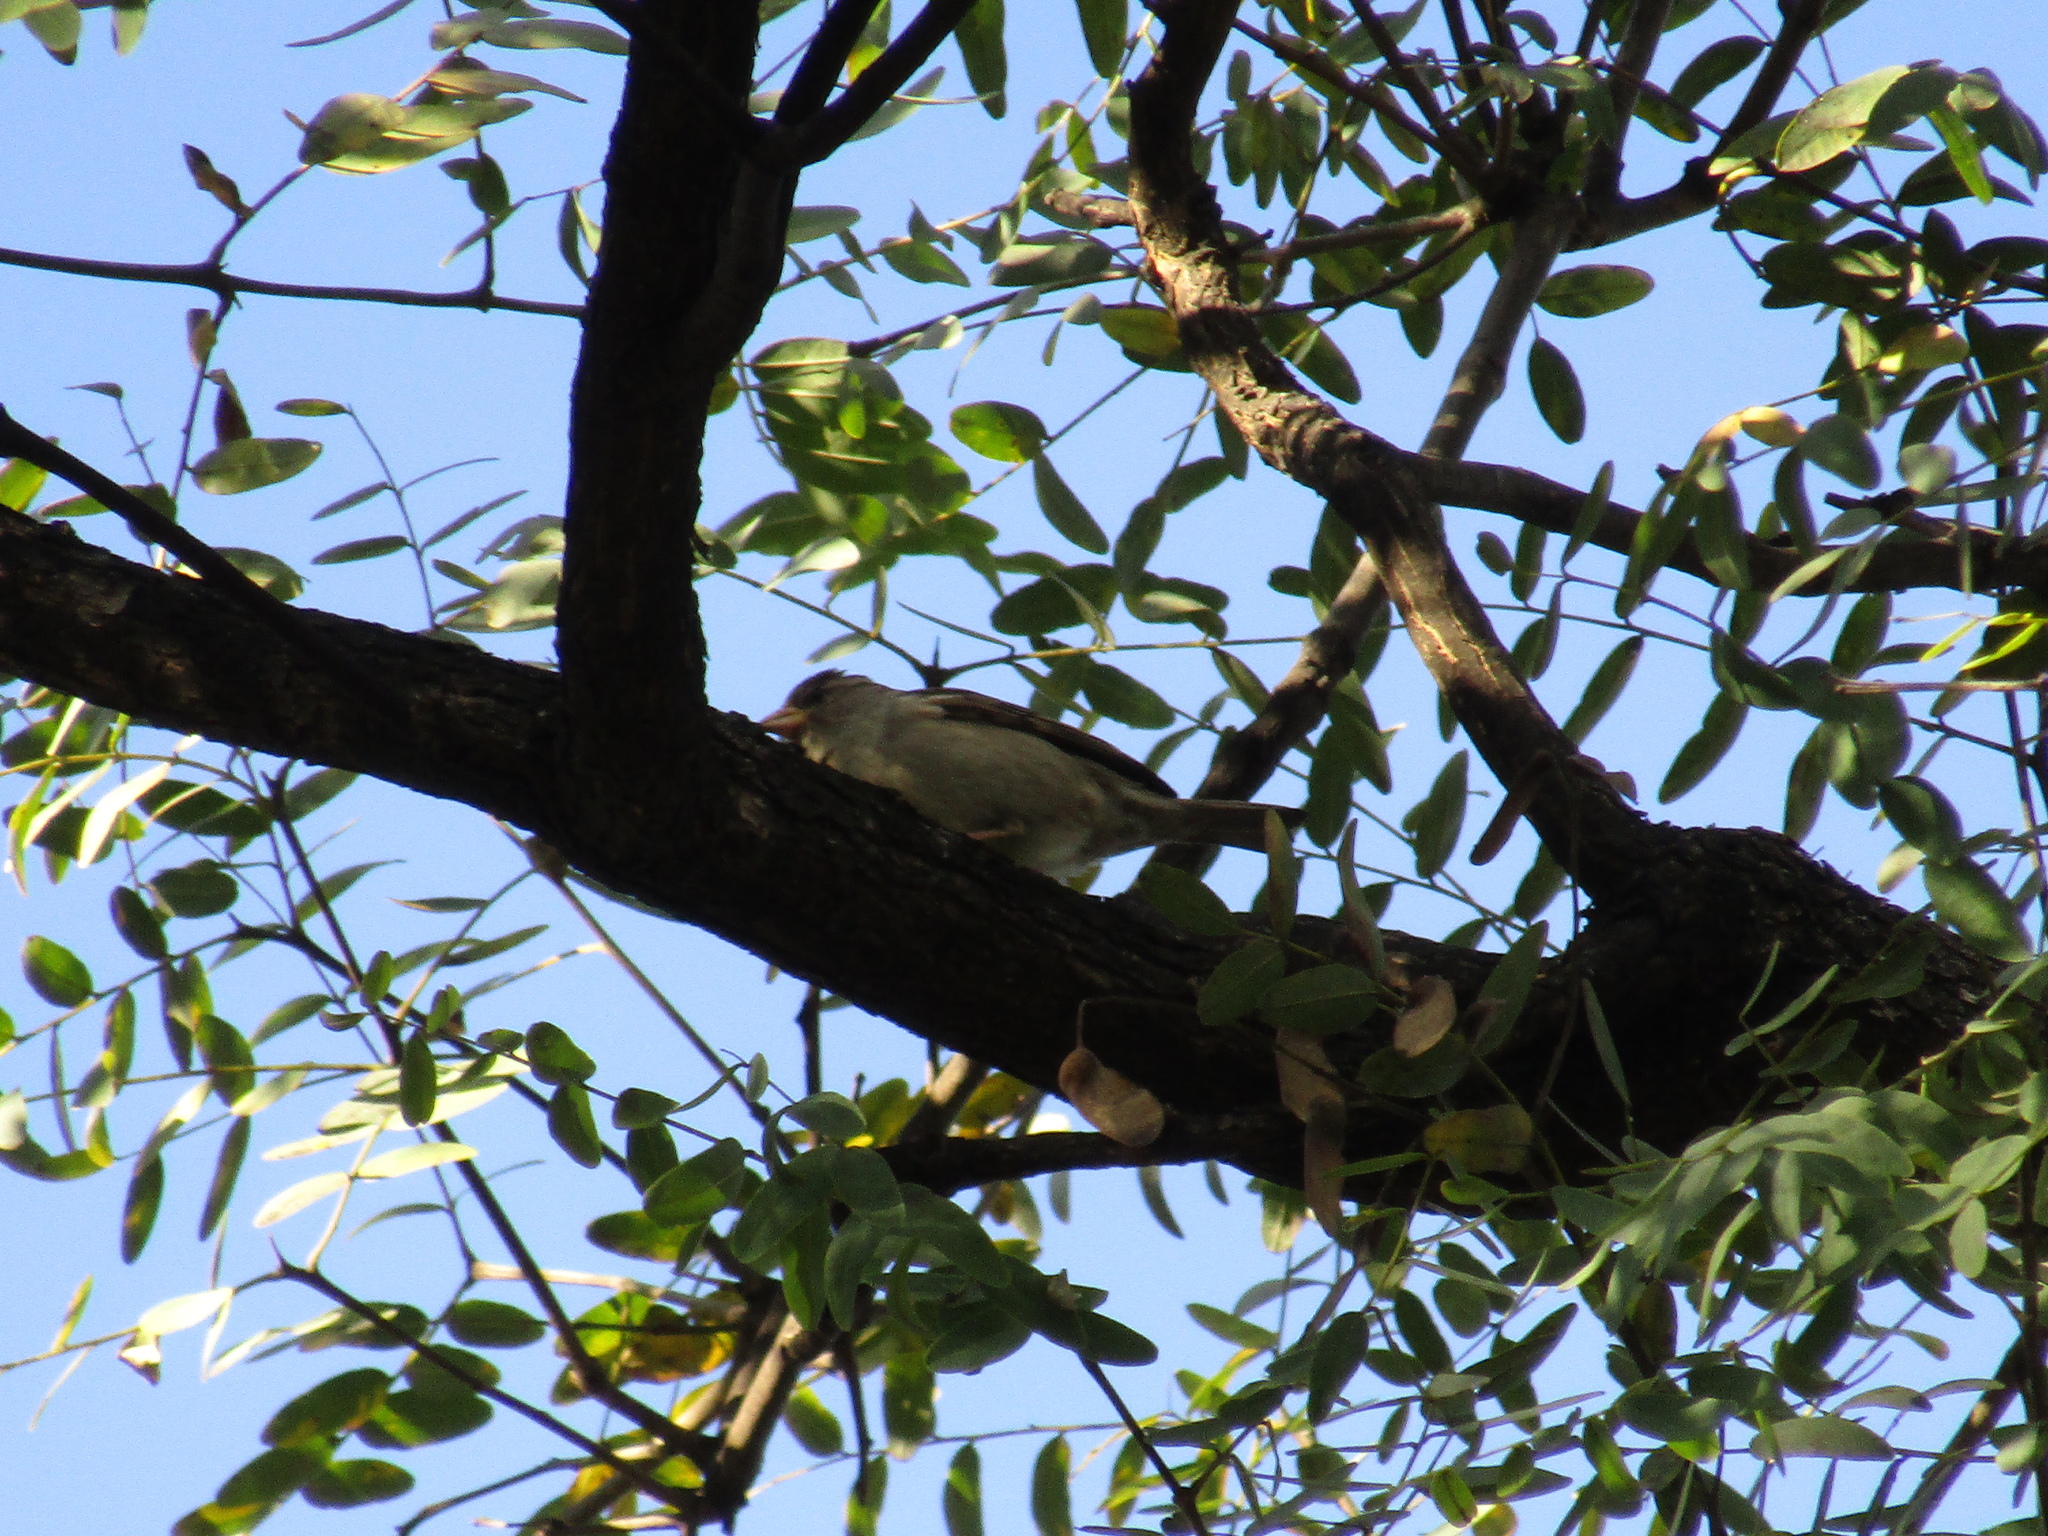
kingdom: Animalia
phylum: Chordata
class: Aves
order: Passeriformes
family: Passeridae
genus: Passer
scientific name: Passer domesticus
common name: House sparrow
